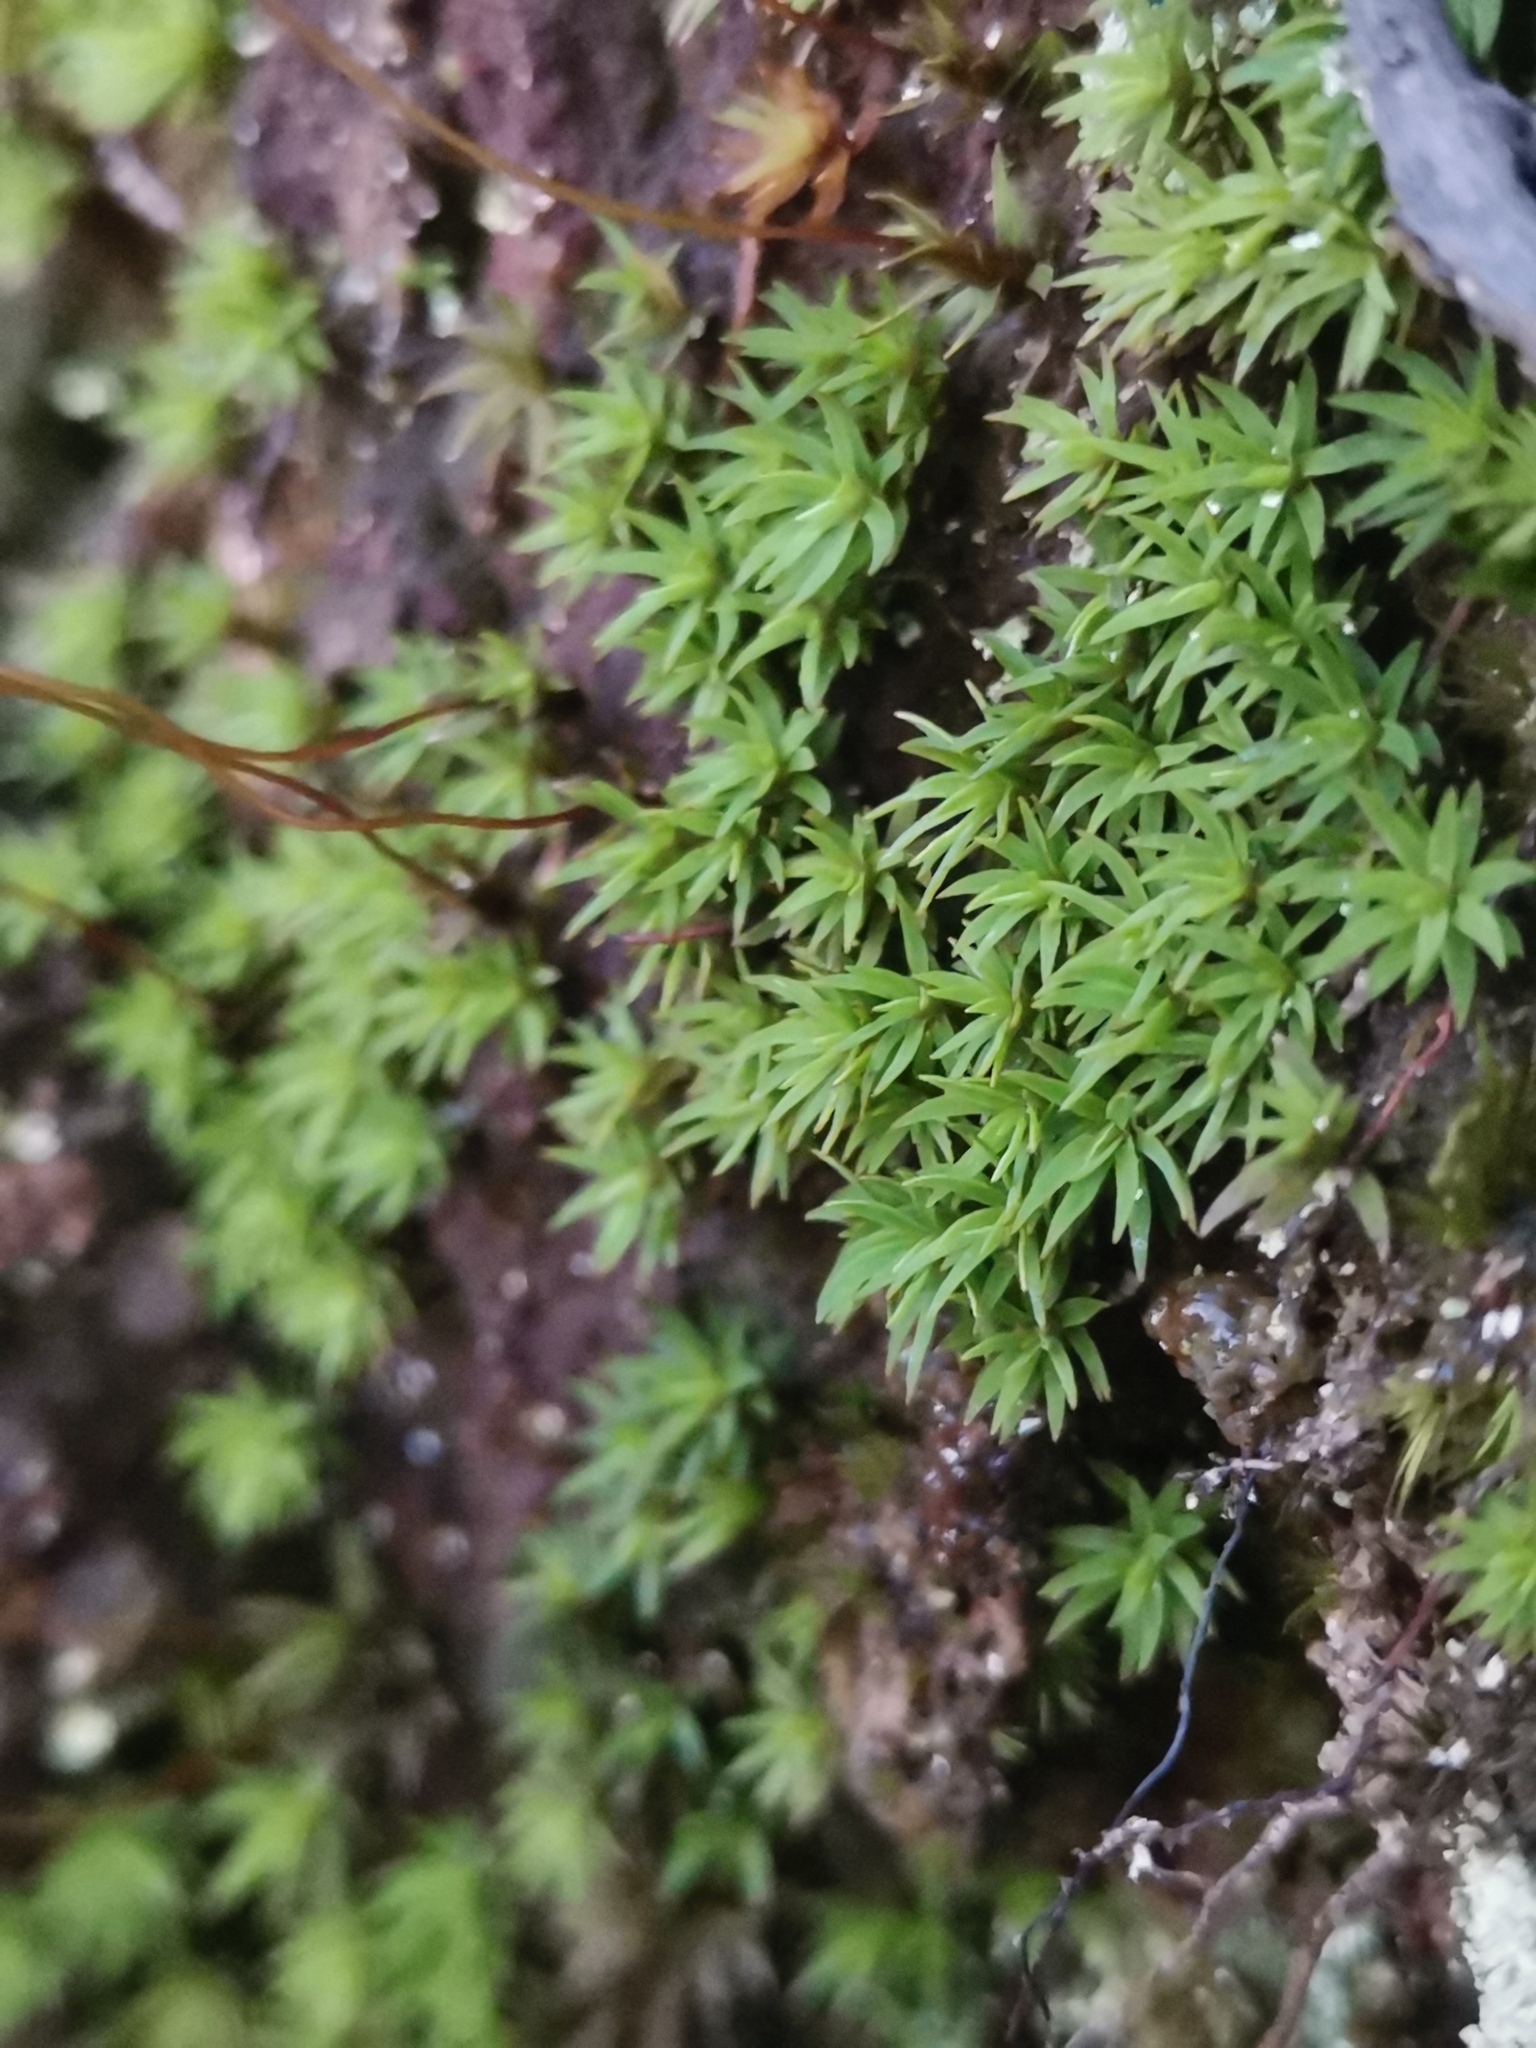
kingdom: Plantae
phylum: Bryophyta
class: Polytrichopsida
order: Polytrichales
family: Polytrichaceae
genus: Pogonatum
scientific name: Pogonatum aloides
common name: Aloe haircap
